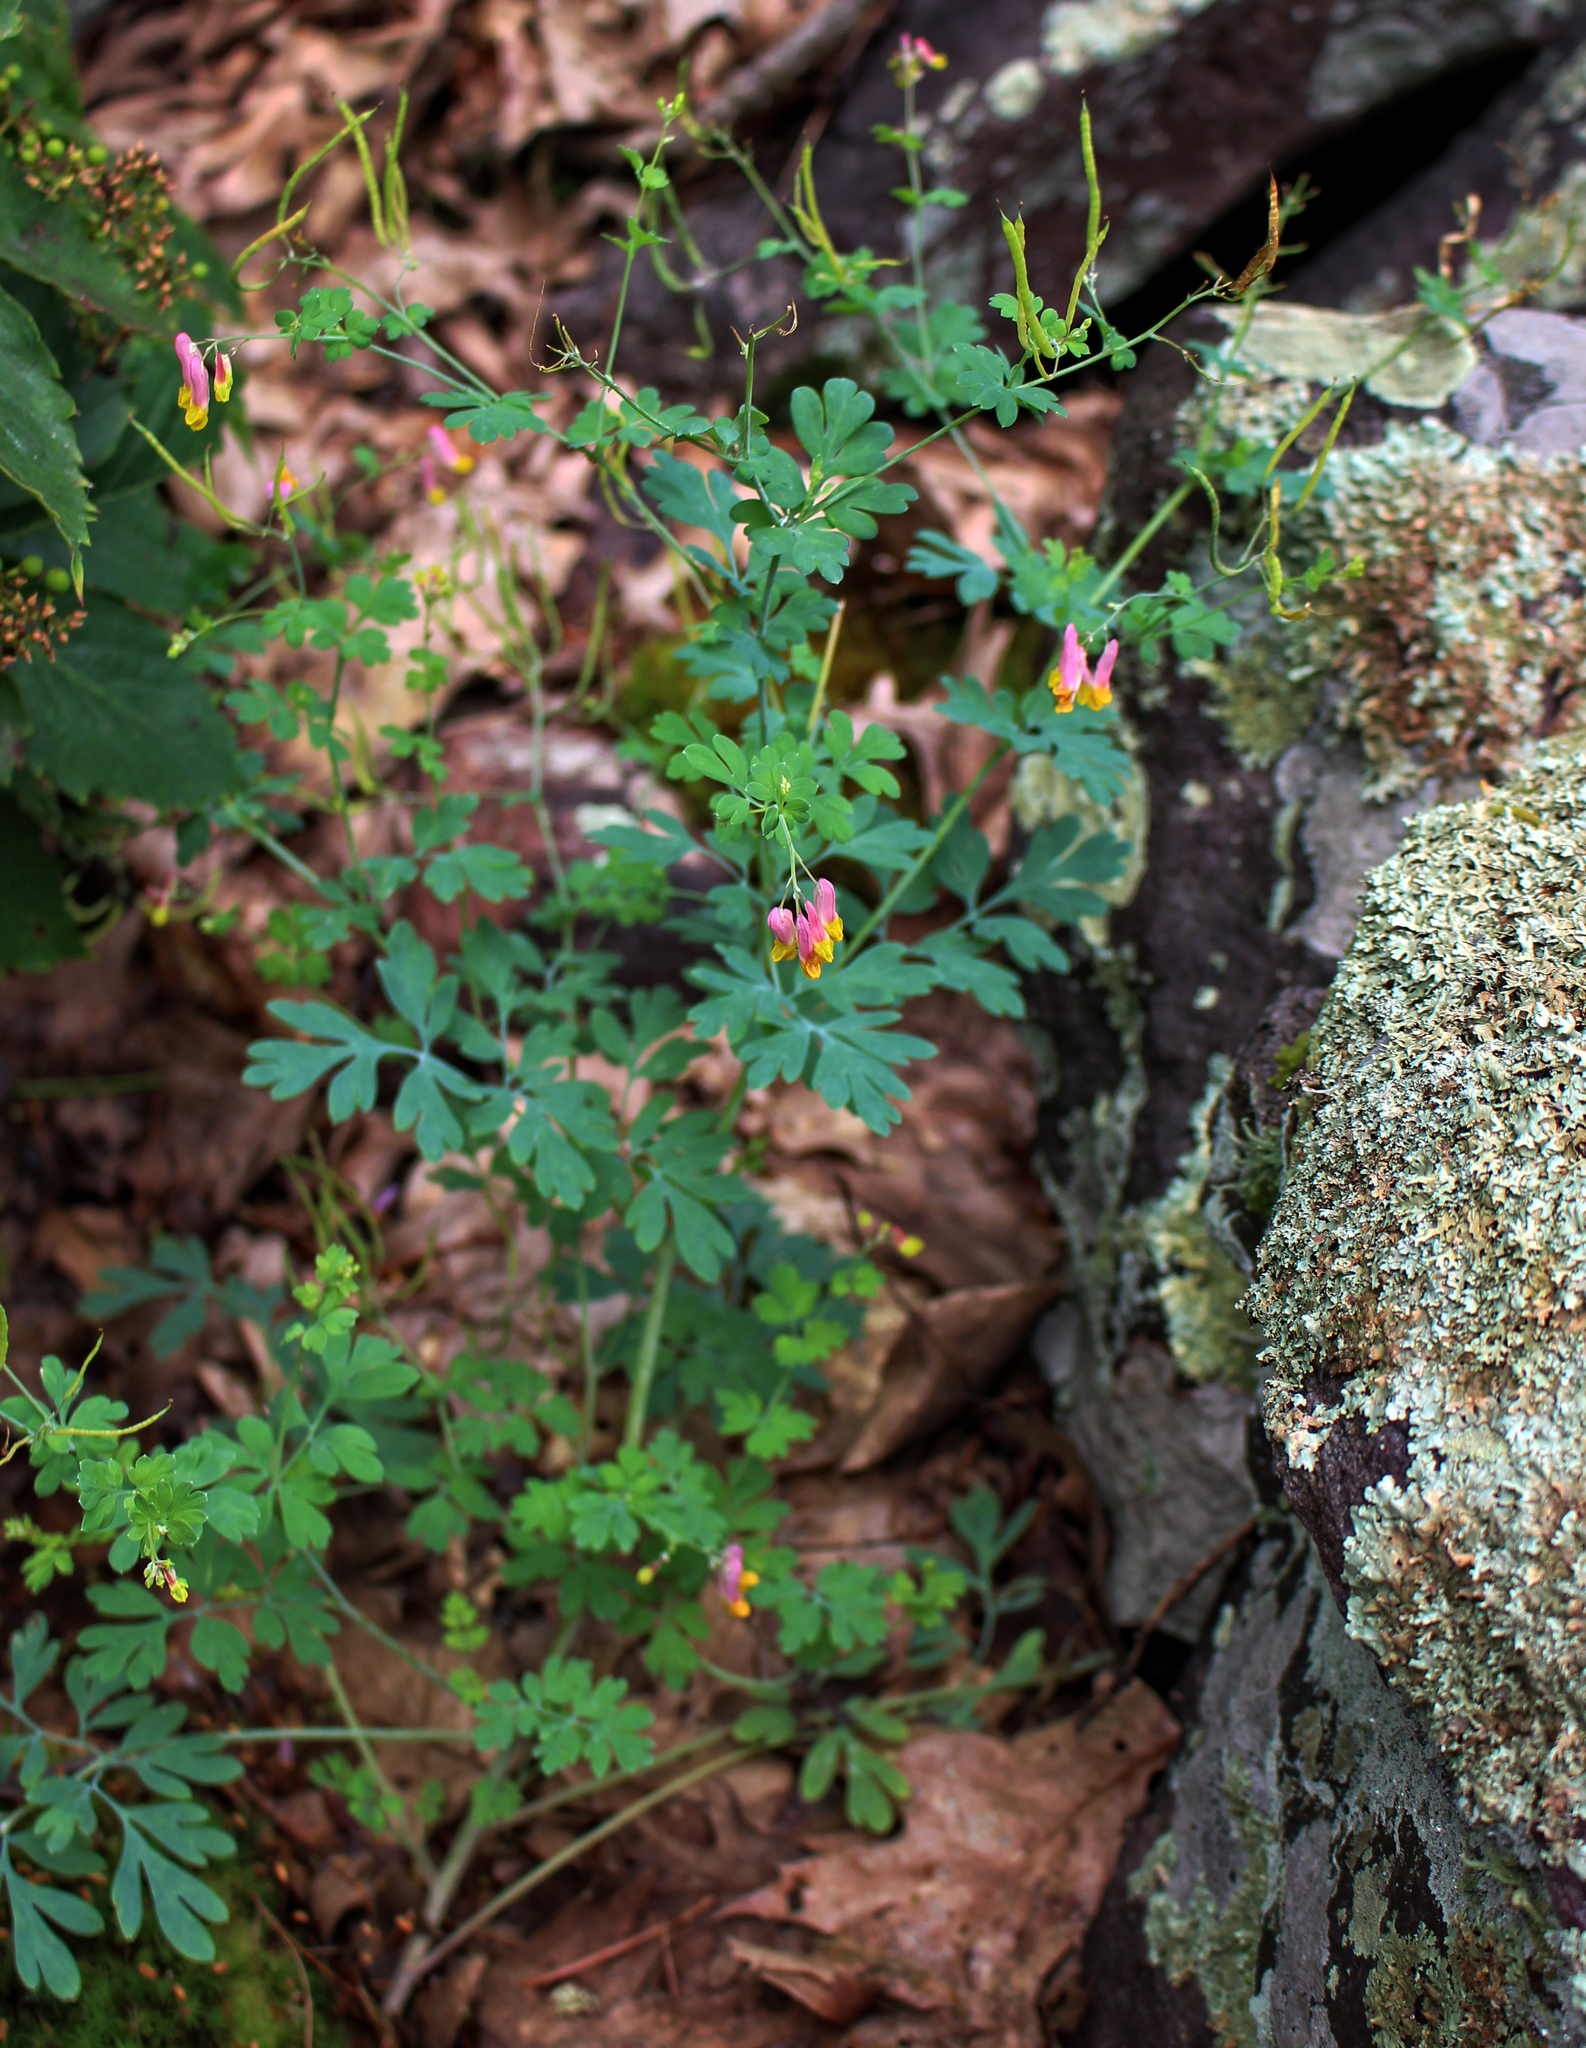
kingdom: Plantae
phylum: Tracheophyta
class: Magnoliopsida
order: Ranunculales
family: Papaveraceae
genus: Capnoides
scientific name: Capnoides sempervirens
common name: Rock harlequin
